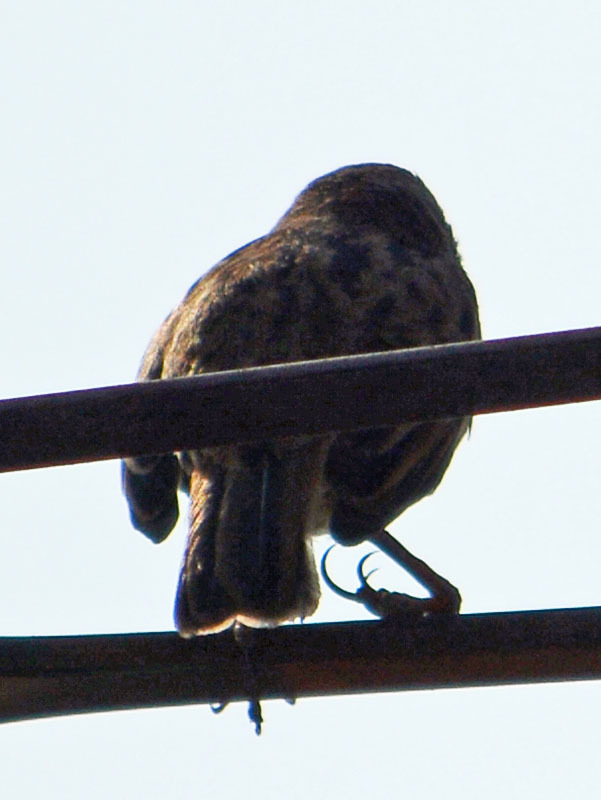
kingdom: Animalia
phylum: Chordata
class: Aves
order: Passeriformes
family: Passerellidae
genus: Melospiza
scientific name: Melospiza melodia
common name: Song sparrow
